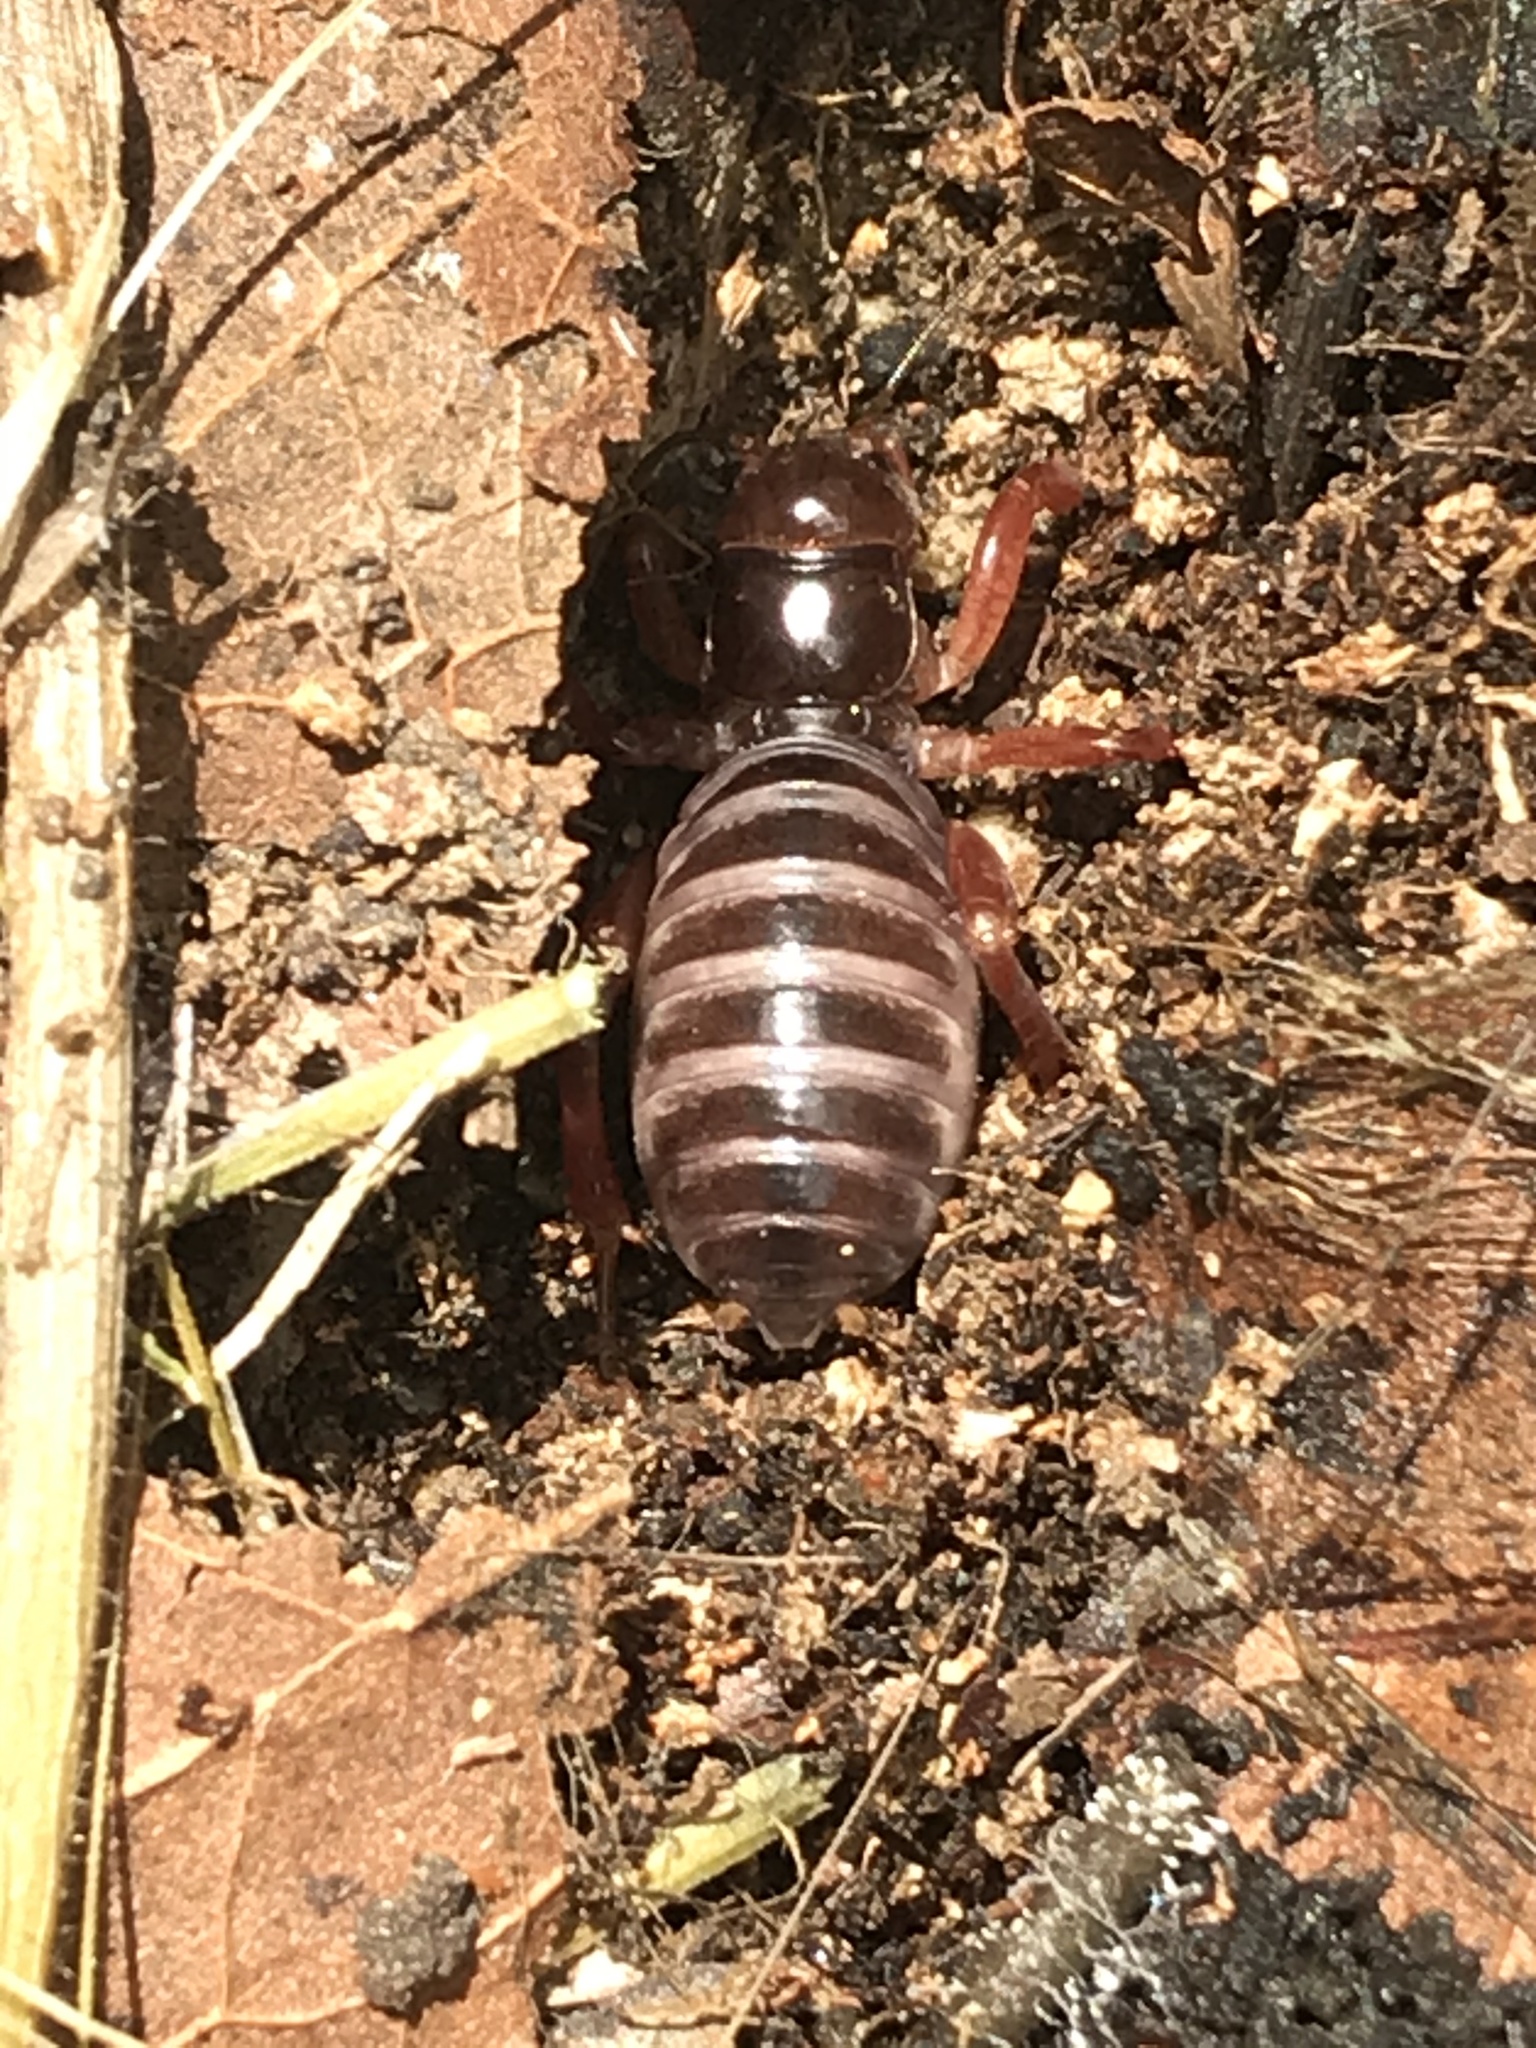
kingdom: Animalia
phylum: Arthropoda
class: Insecta
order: Orthoptera
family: Stenopelmatidae
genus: Ammopelmatus
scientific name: Ammopelmatus
